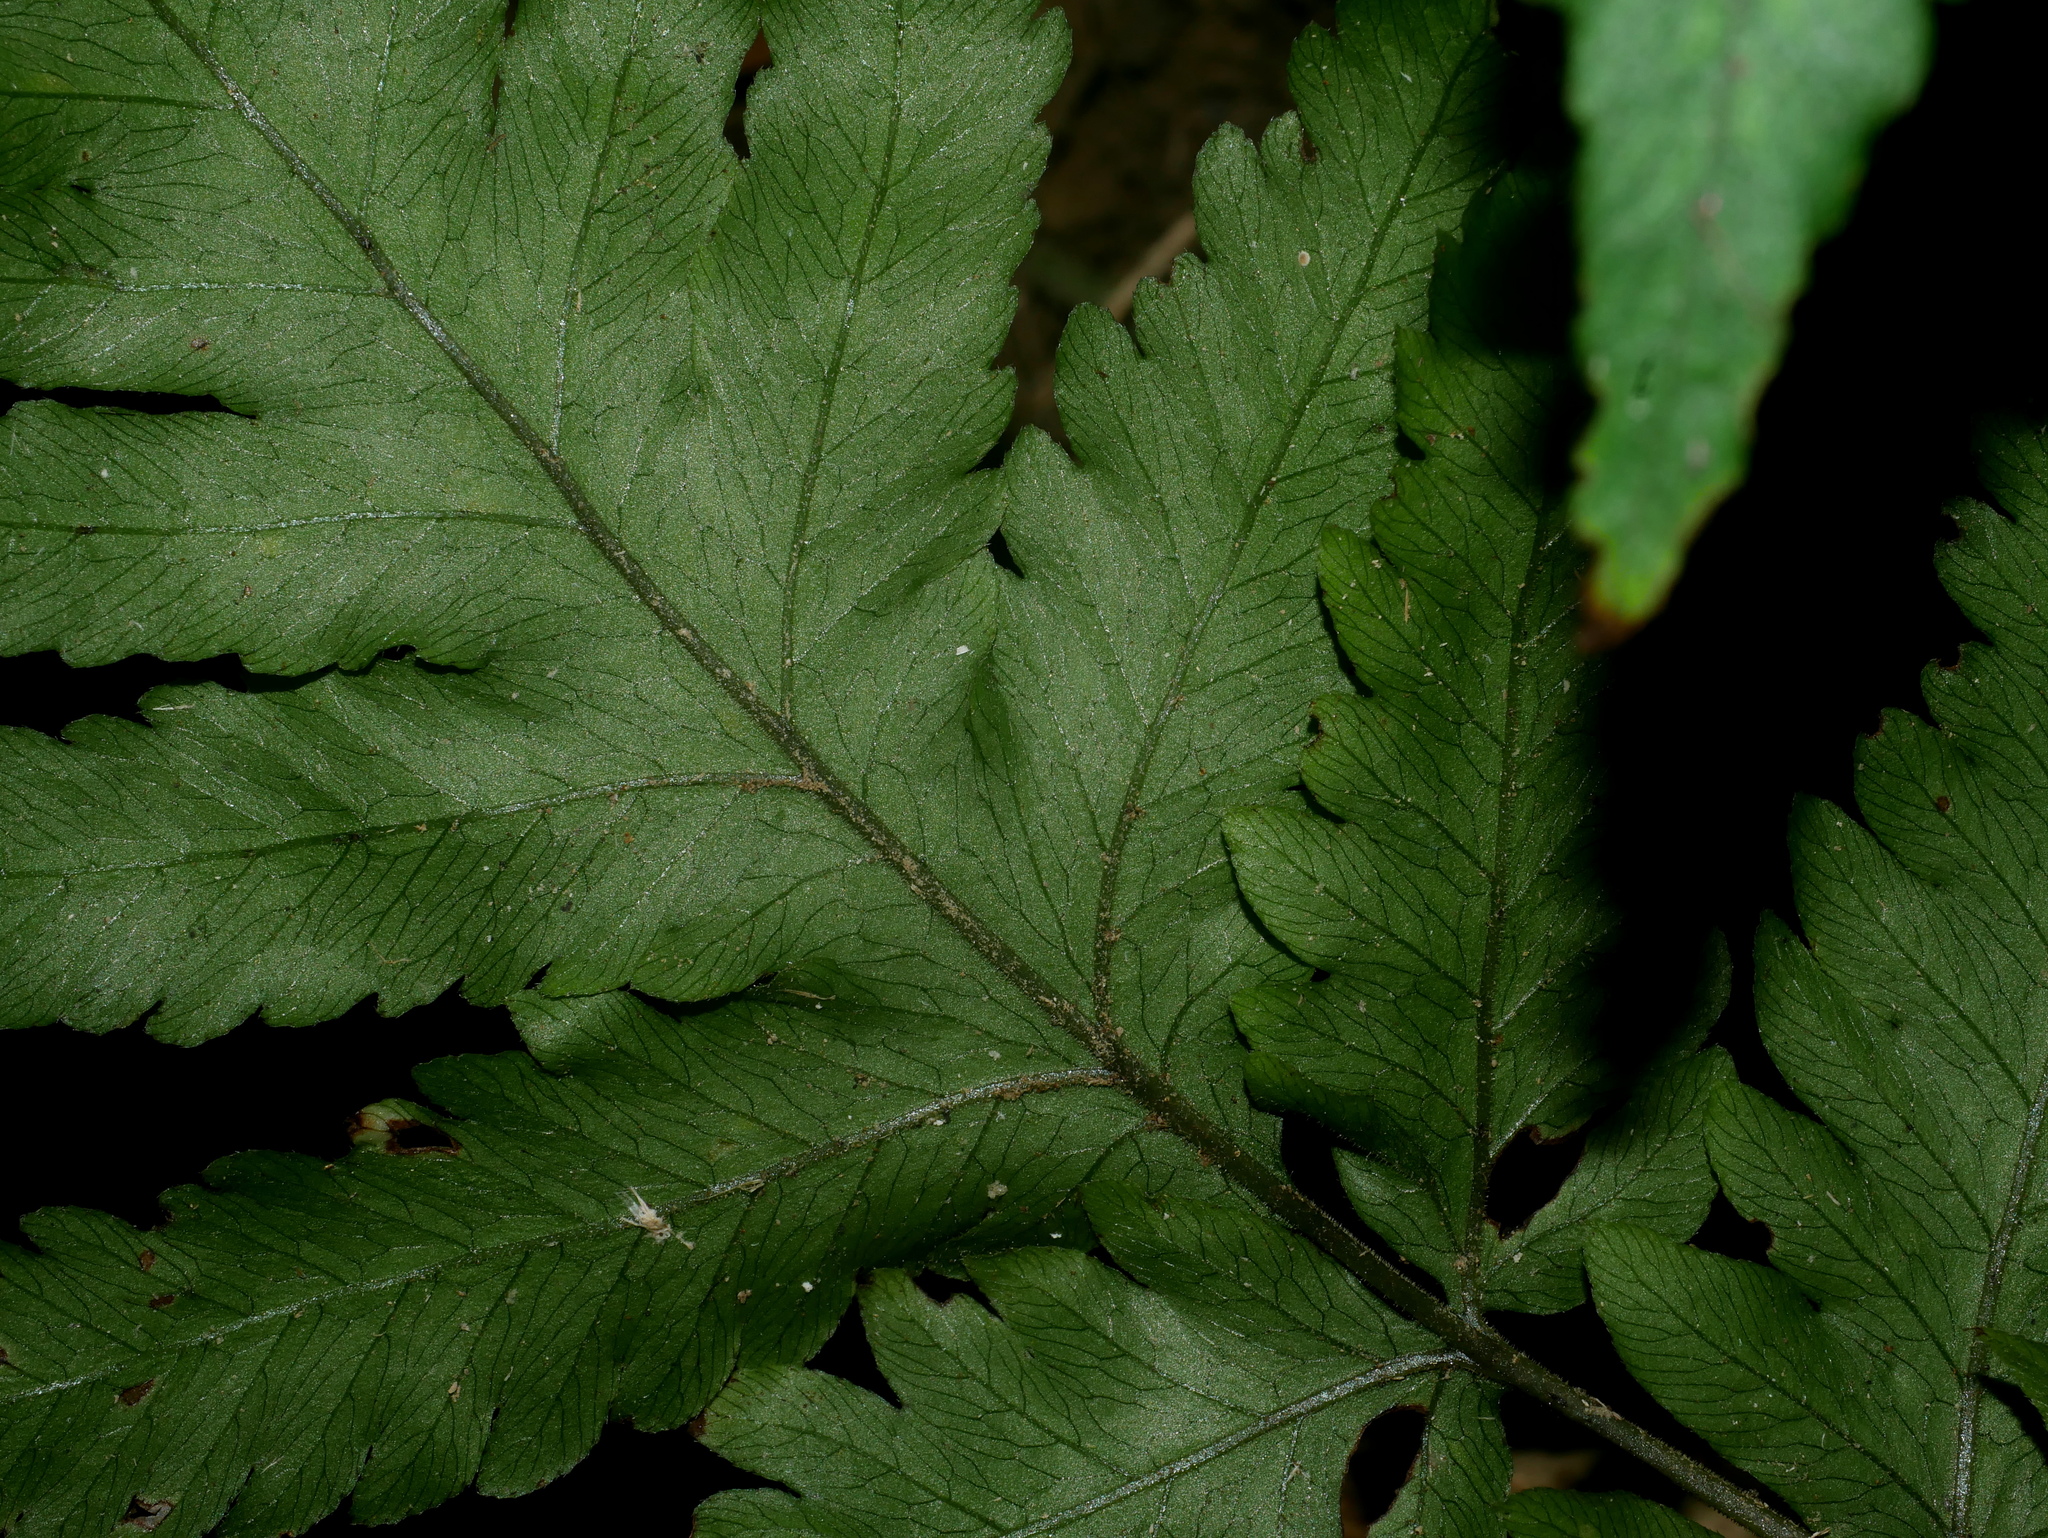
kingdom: Plantae
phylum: Tracheophyta
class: Polypodiopsida
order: Polypodiales
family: Tectariaceae
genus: Tectaria
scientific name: Tectaria fuscipes
